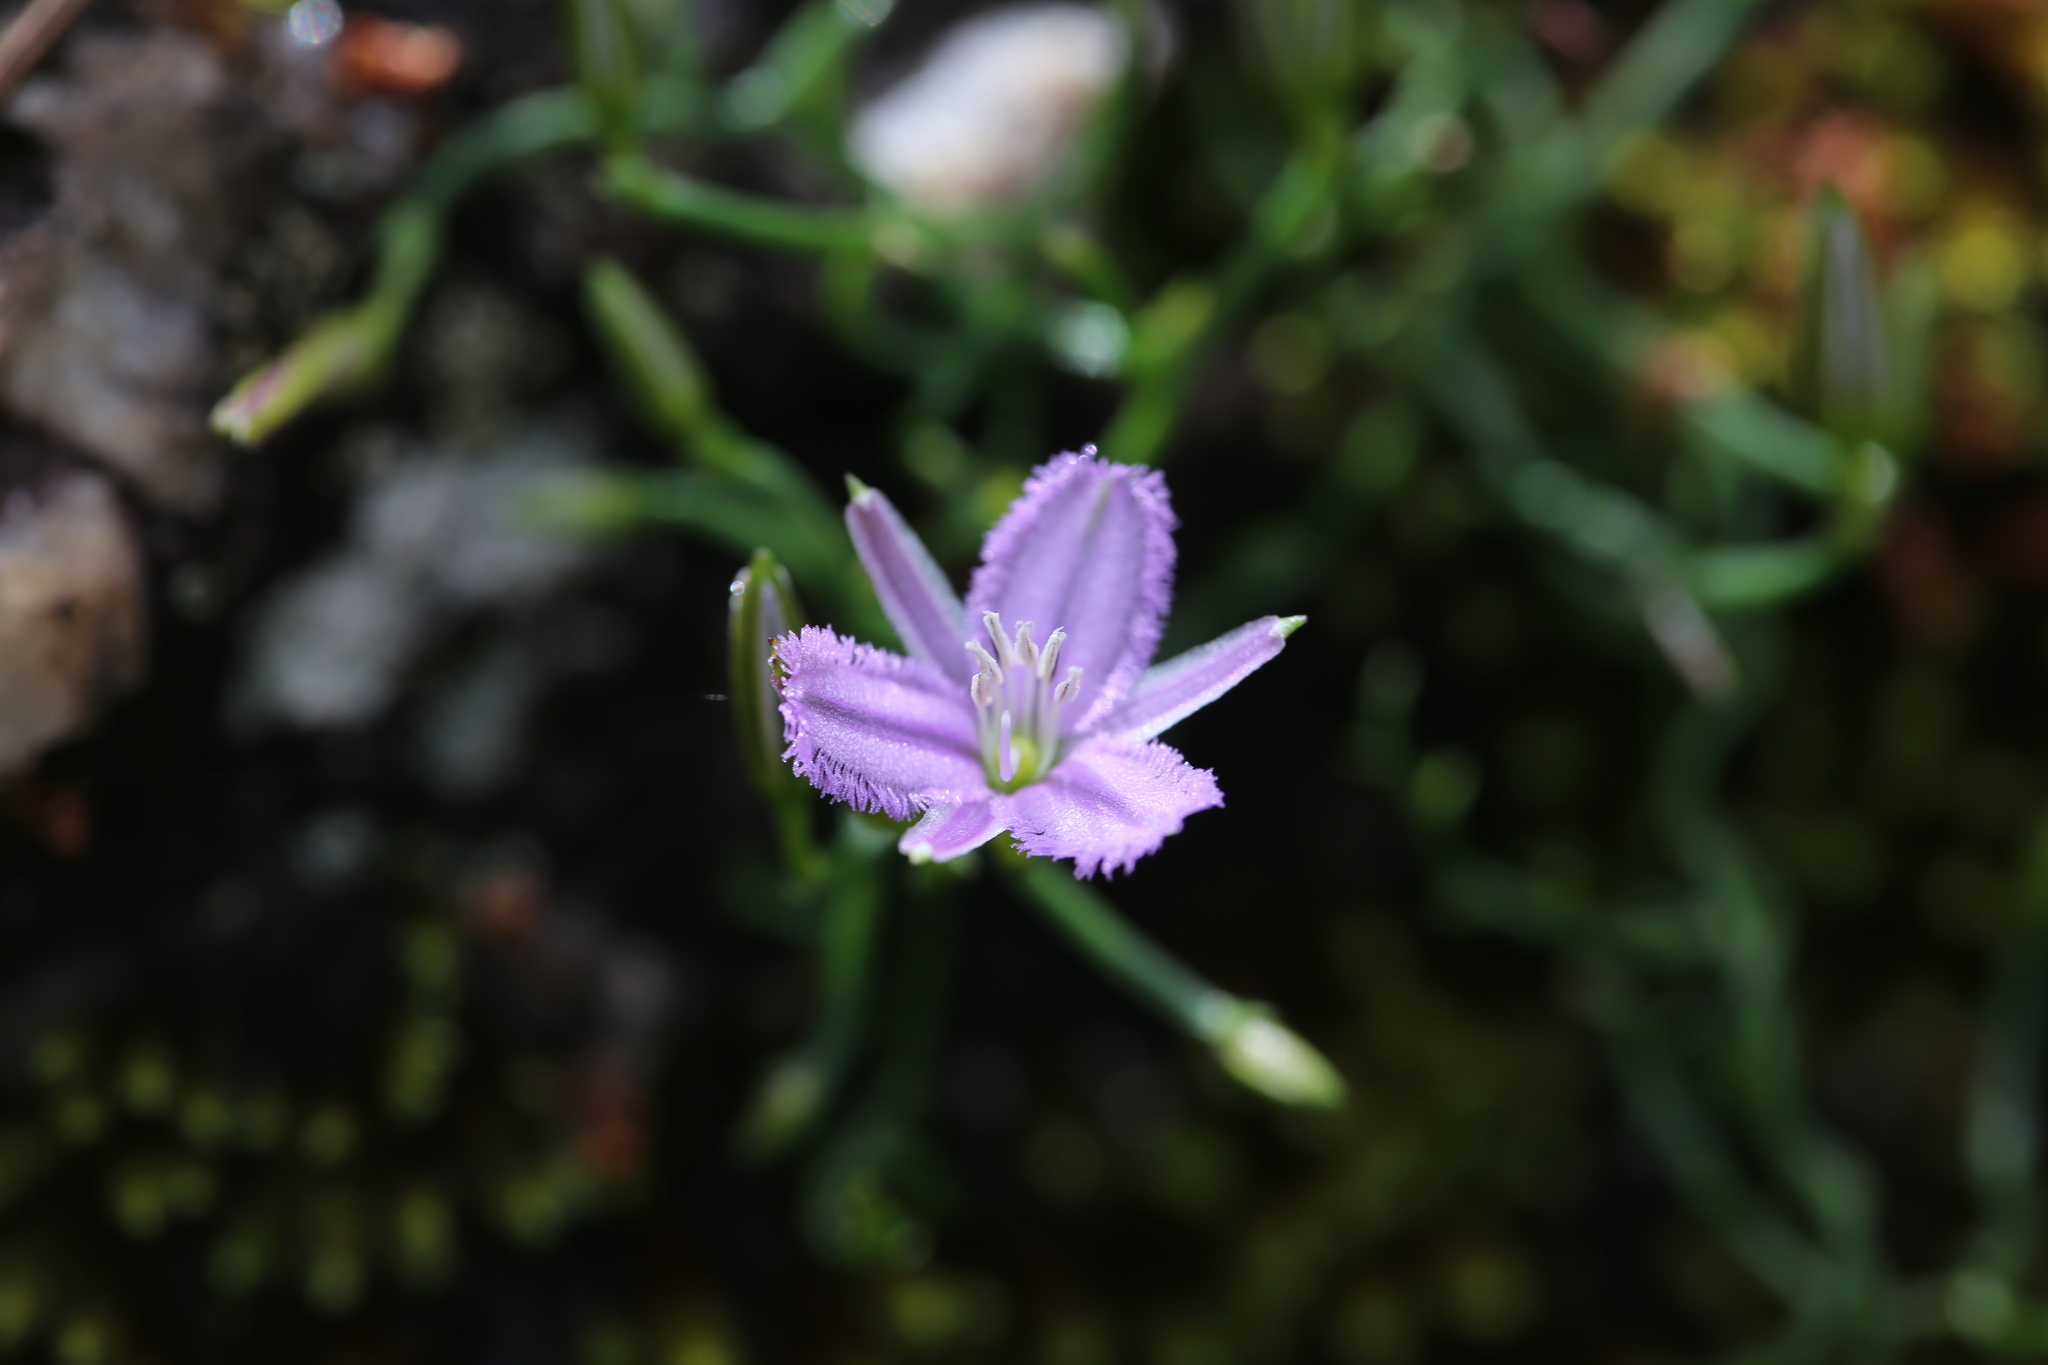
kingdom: Plantae
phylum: Tracheophyta
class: Liliopsida
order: Asparagales
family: Asparagaceae
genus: Thysanotus
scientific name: Thysanotus patersonii
